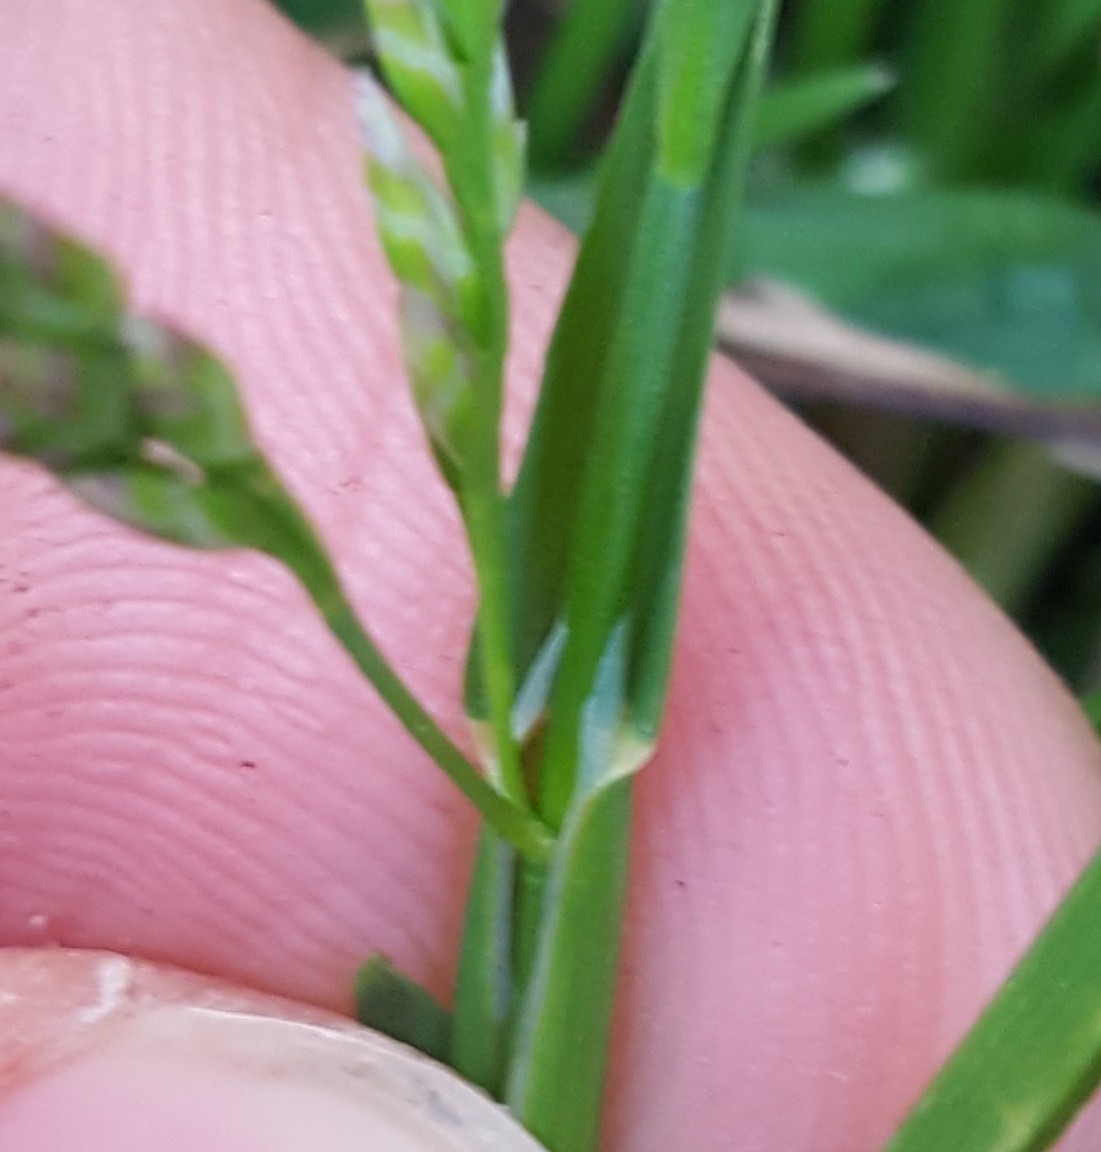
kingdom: Plantae
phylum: Tracheophyta
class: Liliopsida
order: Poales
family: Poaceae
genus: Poa
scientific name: Poa annua
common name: Annual bluegrass
